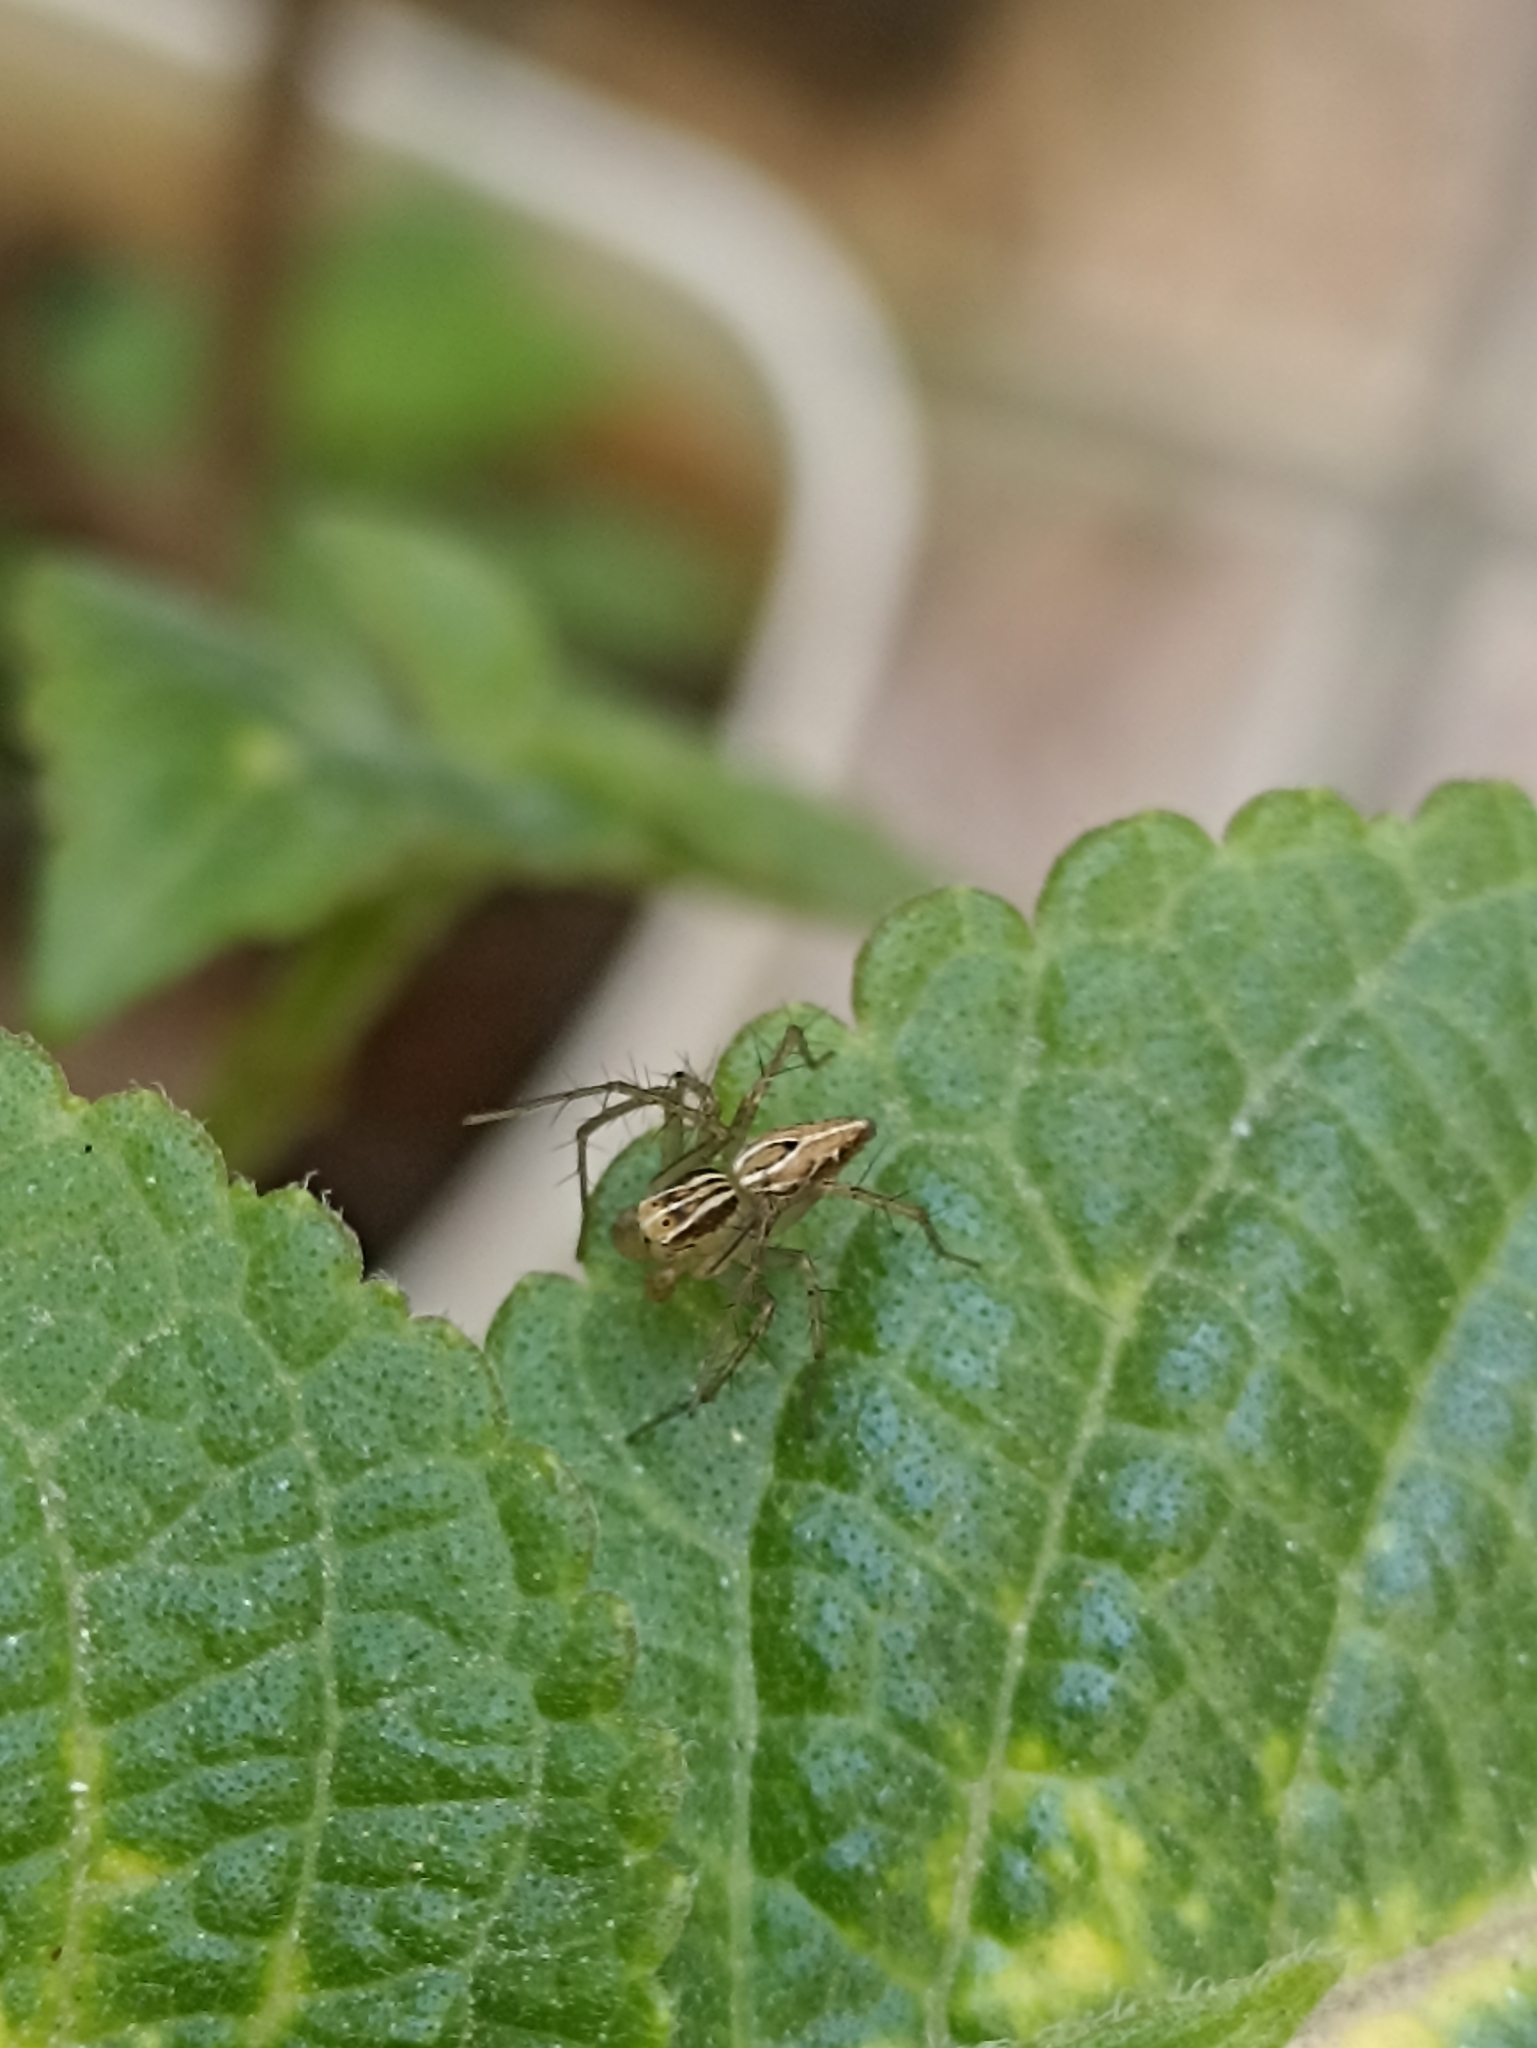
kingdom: Animalia
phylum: Arthropoda
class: Arachnida
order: Araneae
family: Oxyopidae
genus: Oxyopes
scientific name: Oxyopes salticus
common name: Lynx spiders
